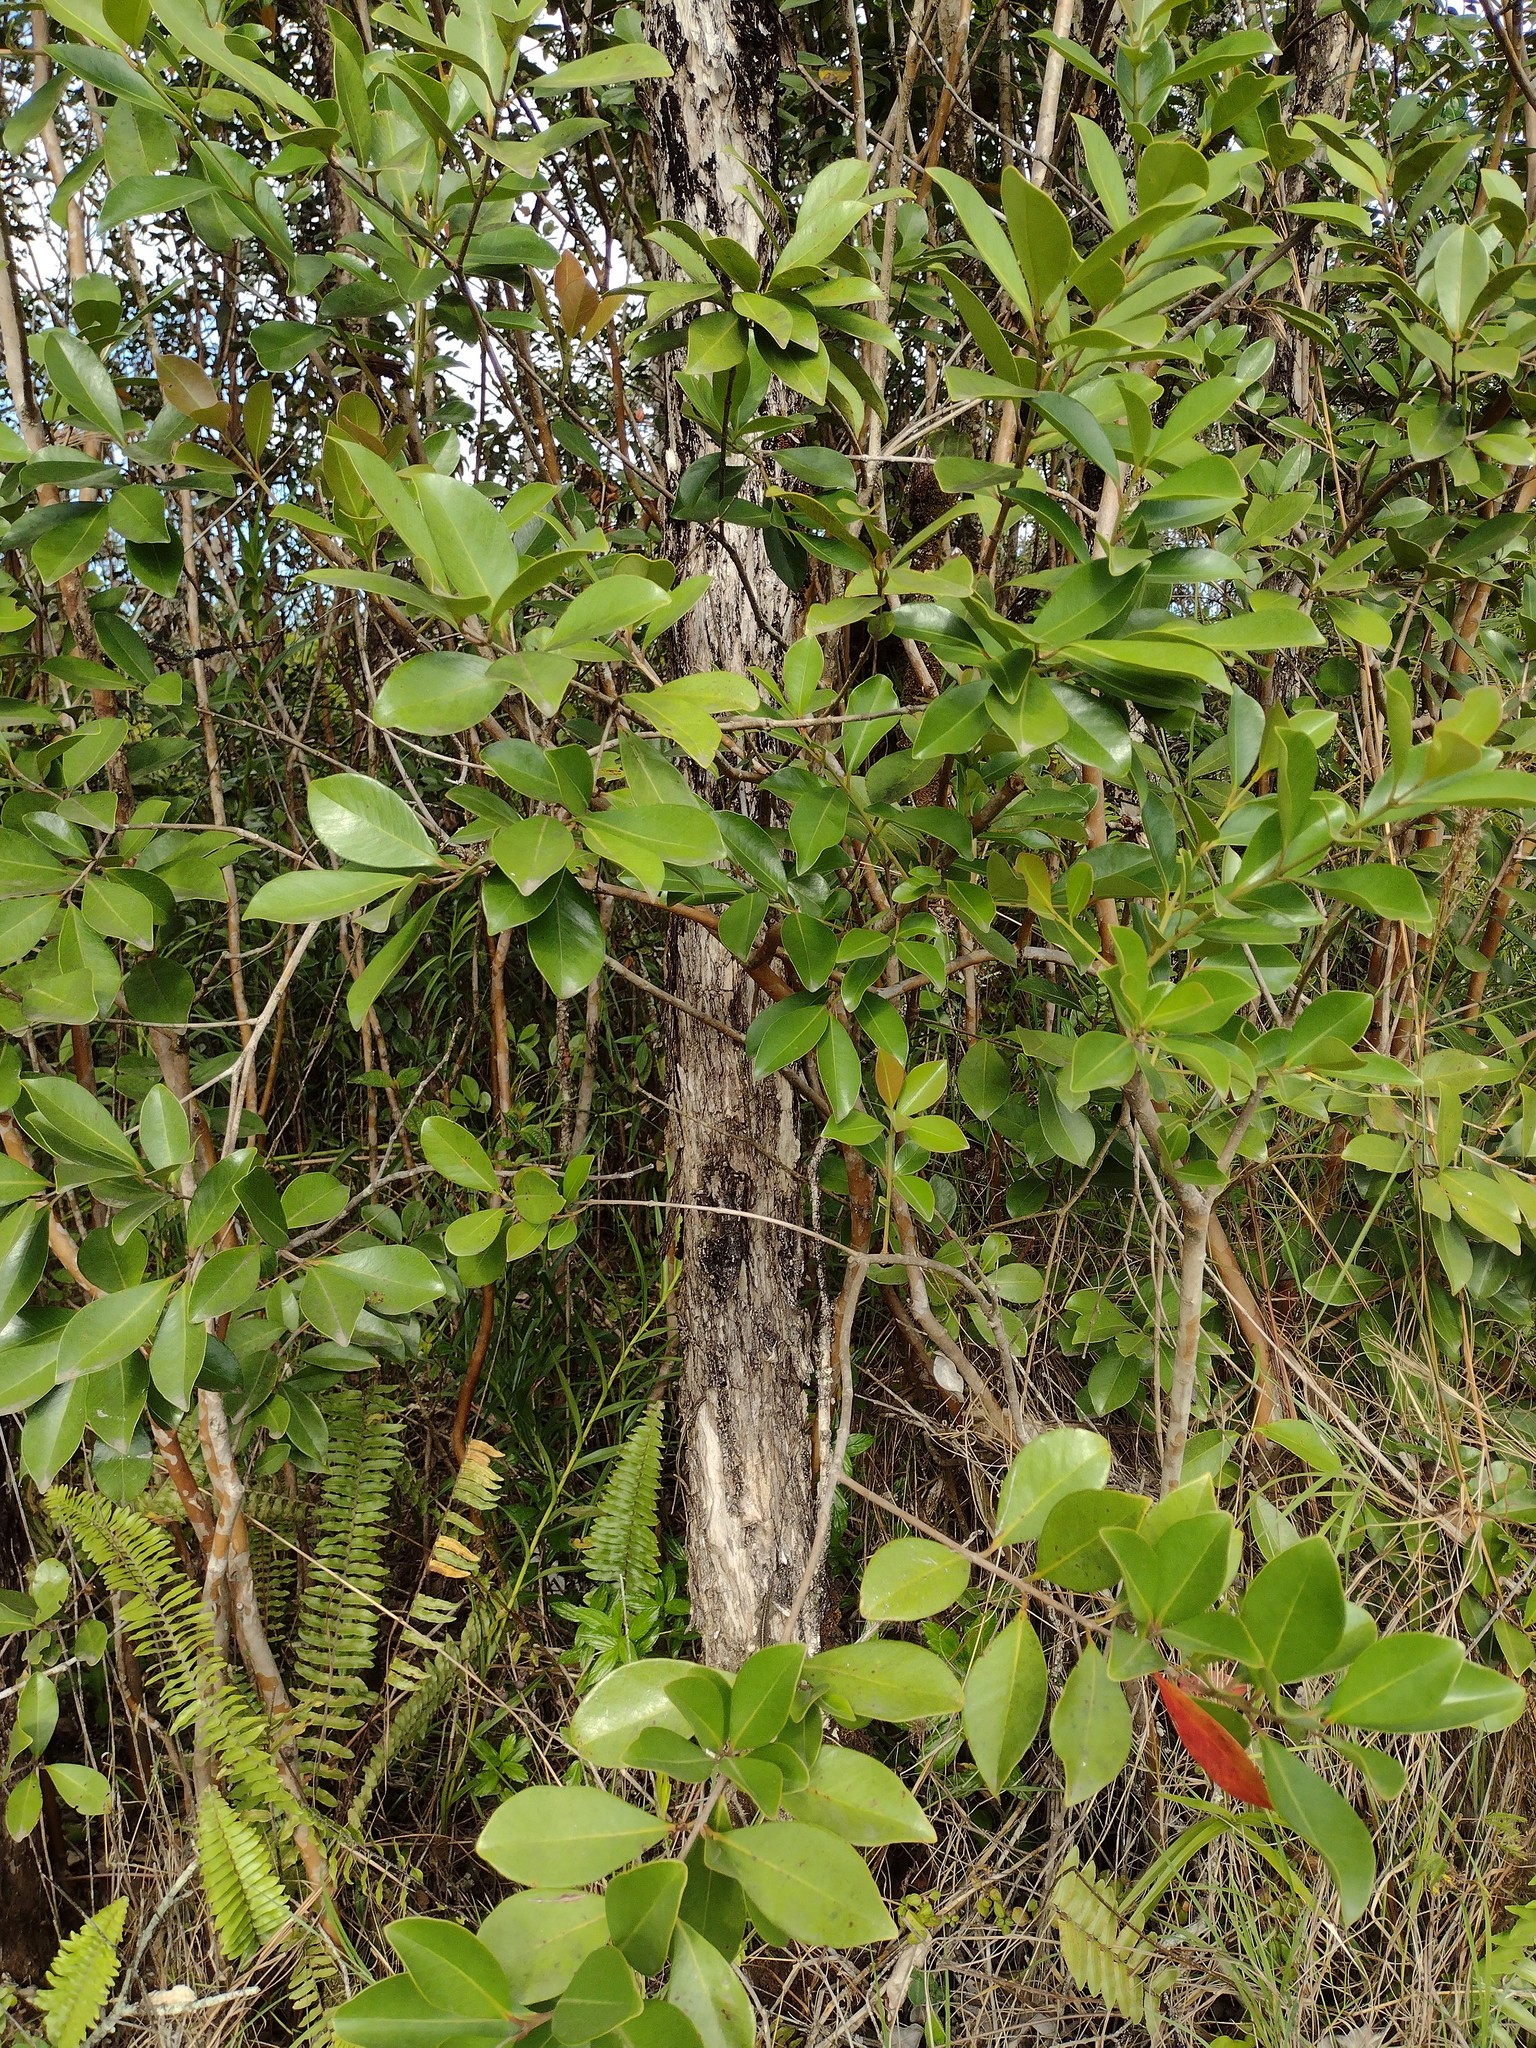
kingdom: Plantae
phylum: Tracheophyta
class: Magnoliopsida
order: Myrtales
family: Myrtaceae
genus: Psidium
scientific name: Psidium cattleianum
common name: Strawberry guava
